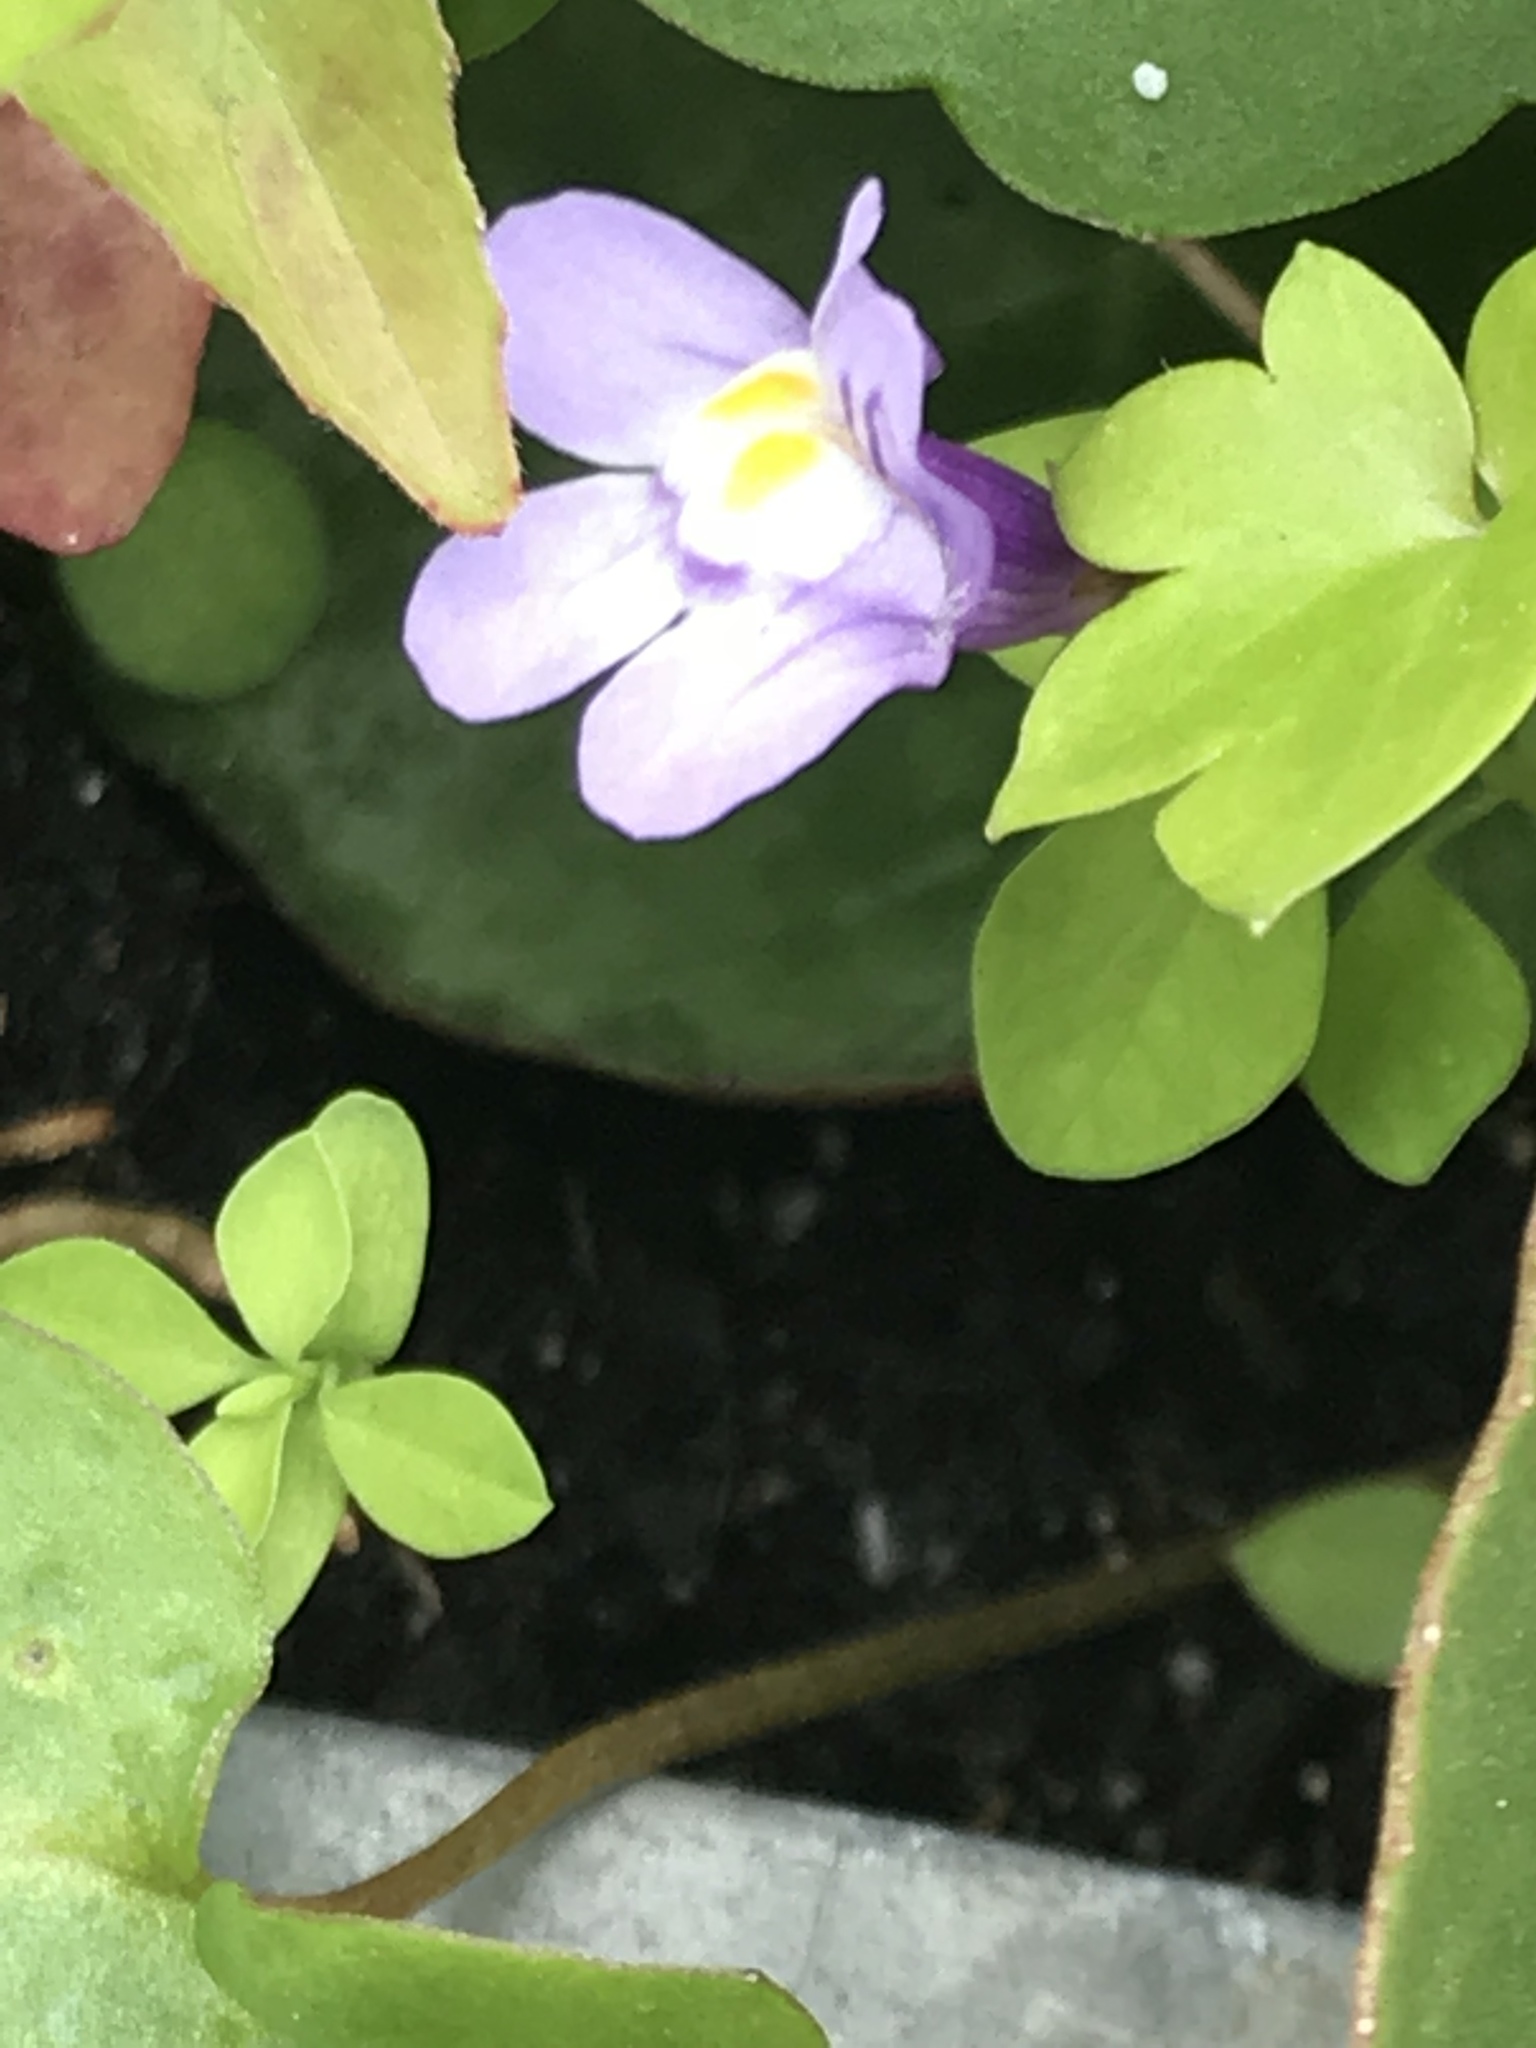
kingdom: Plantae
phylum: Tracheophyta
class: Magnoliopsida
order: Lamiales
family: Plantaginaceae
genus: Cymbalaria
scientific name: Cymbalaria muralis
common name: Ivy-leaved toadflax
